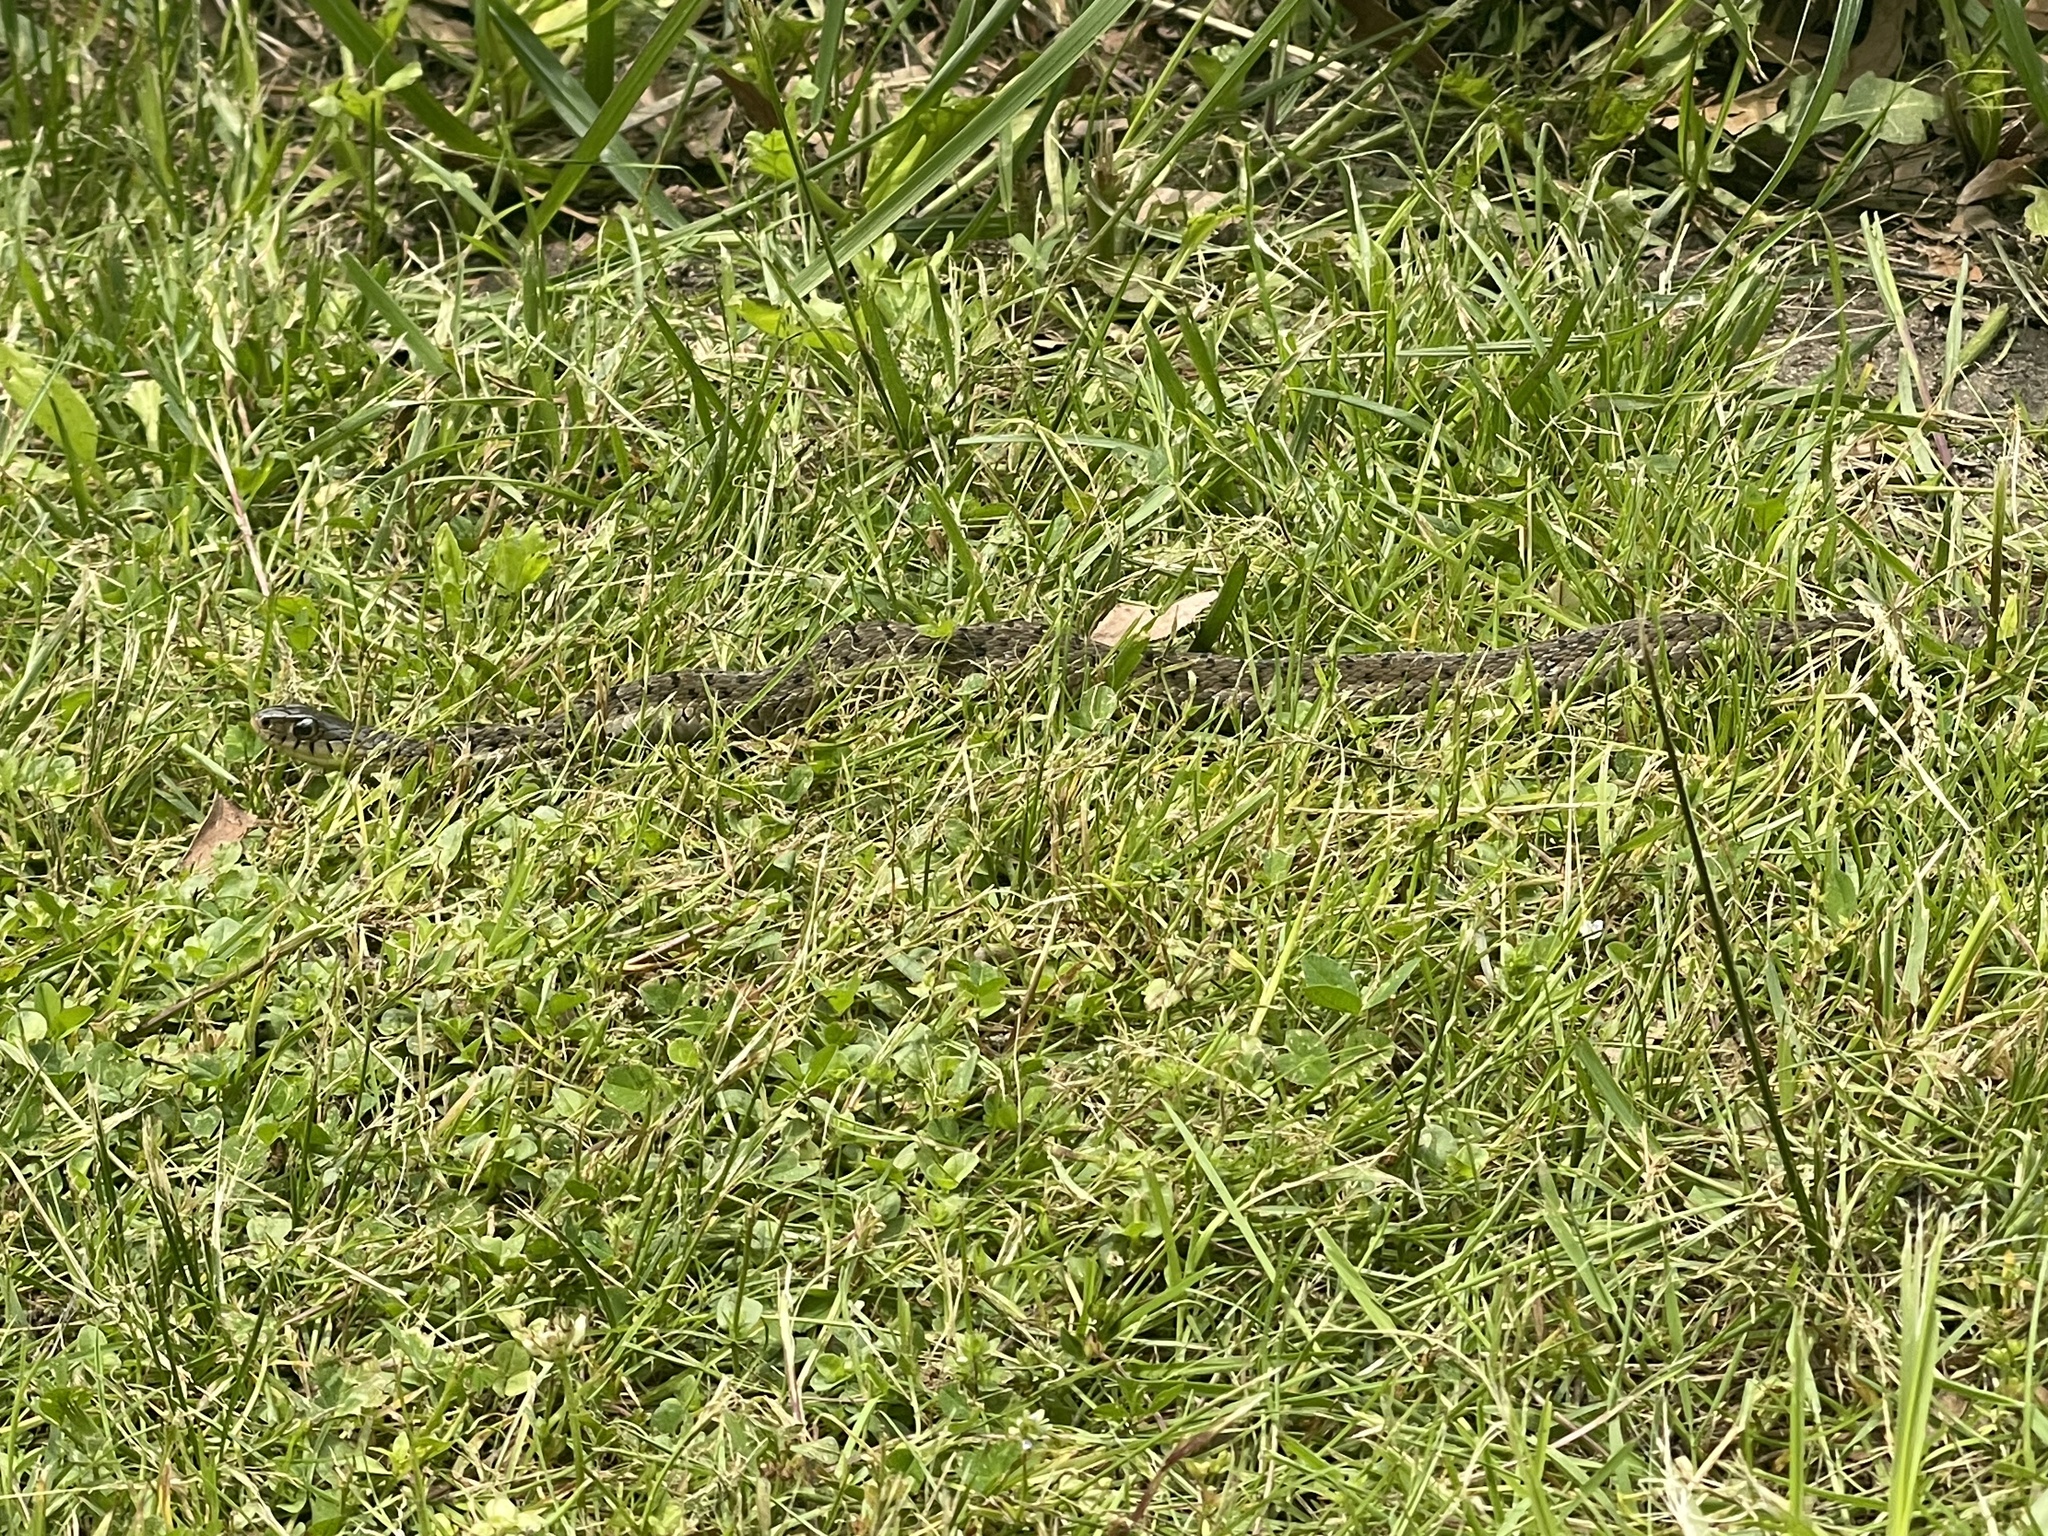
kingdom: Animalia
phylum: Chordata
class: Squamata
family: Colubridae
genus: Thamnophis
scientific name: Thamnophis sirtalis
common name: Common garter snake
